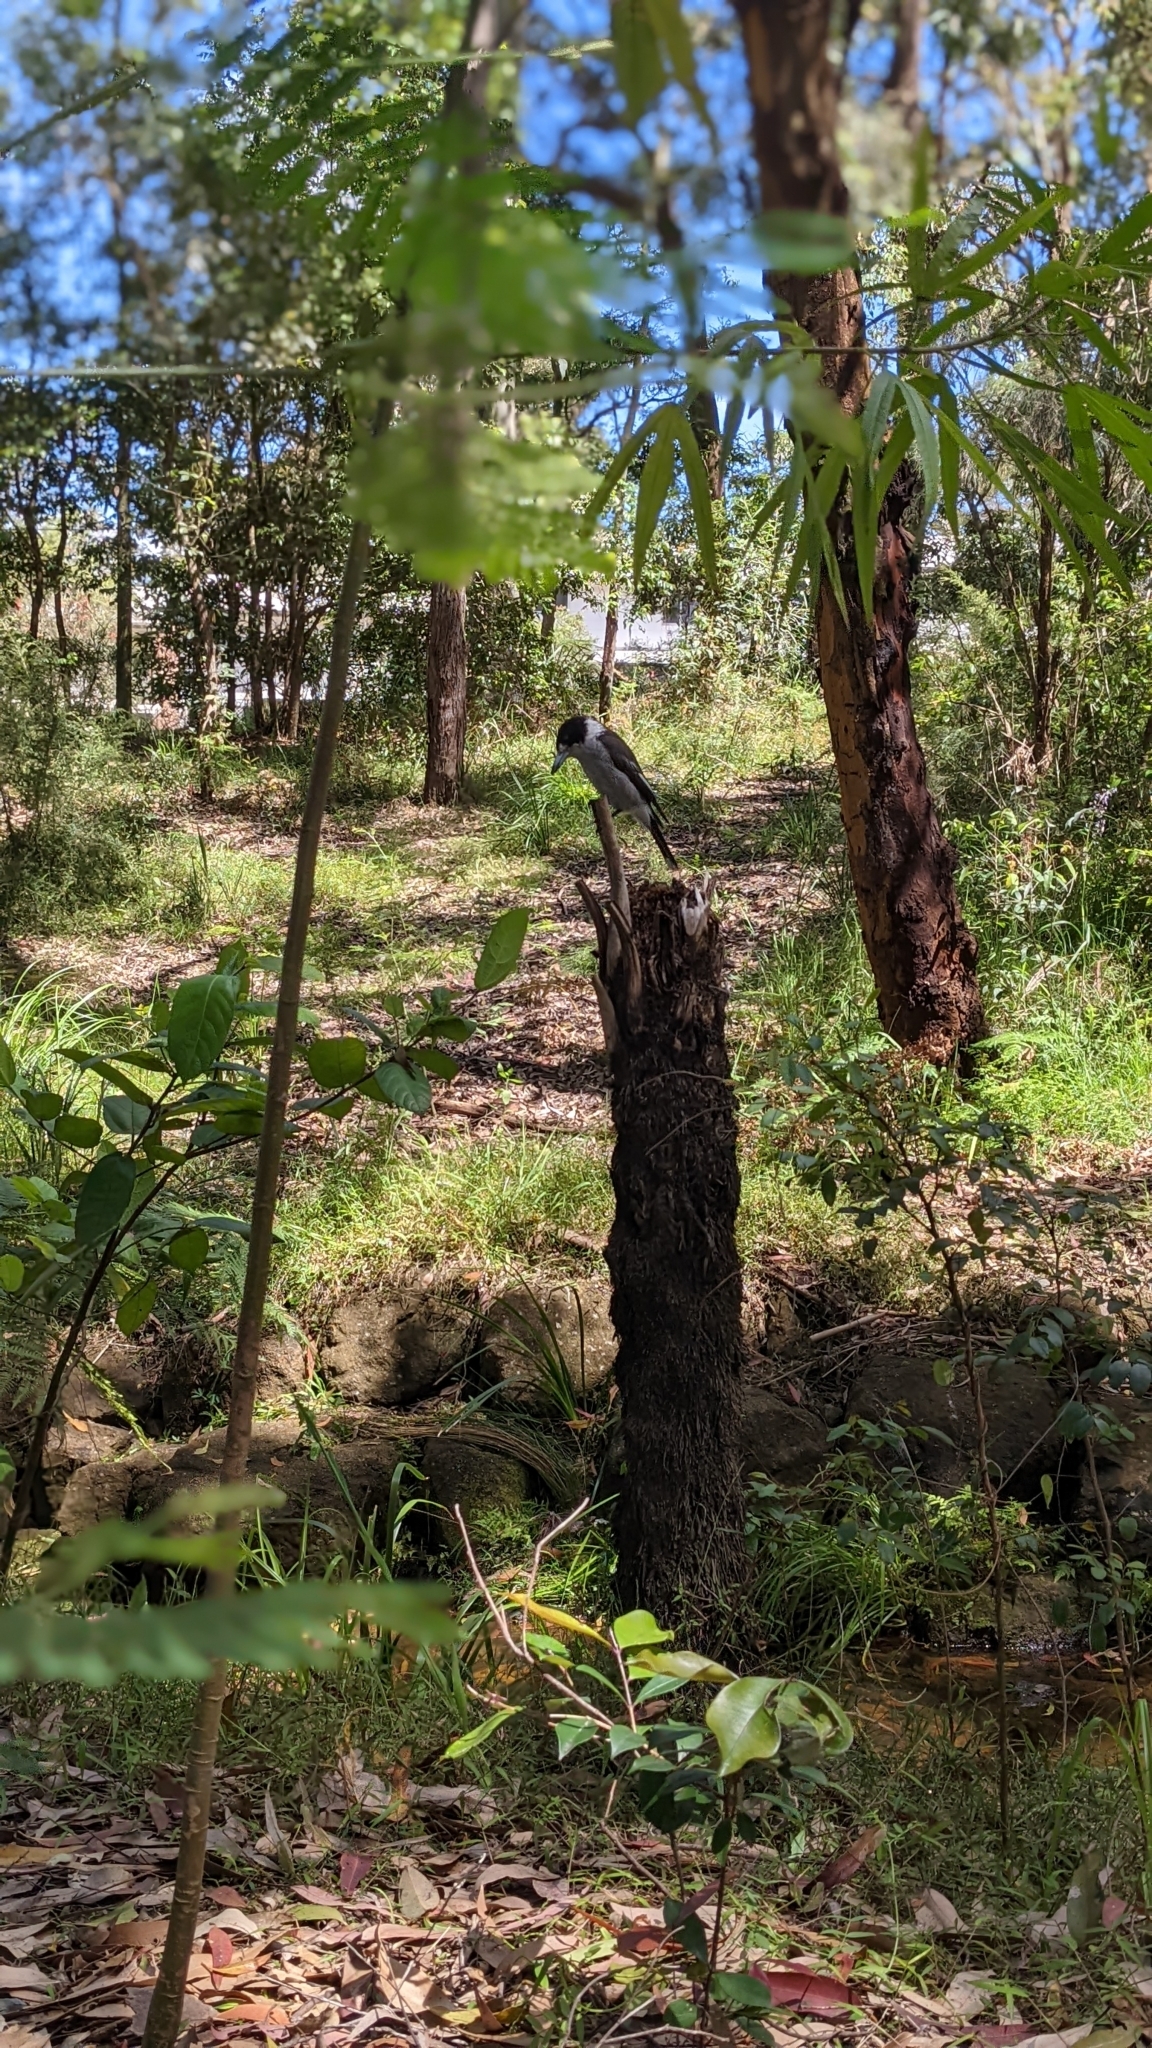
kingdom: Animalia
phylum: Chordata
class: Aves
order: Passeriformes
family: Cracticidae
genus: Cracticus
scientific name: Cracticus torquatus
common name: Grey butcherbird
